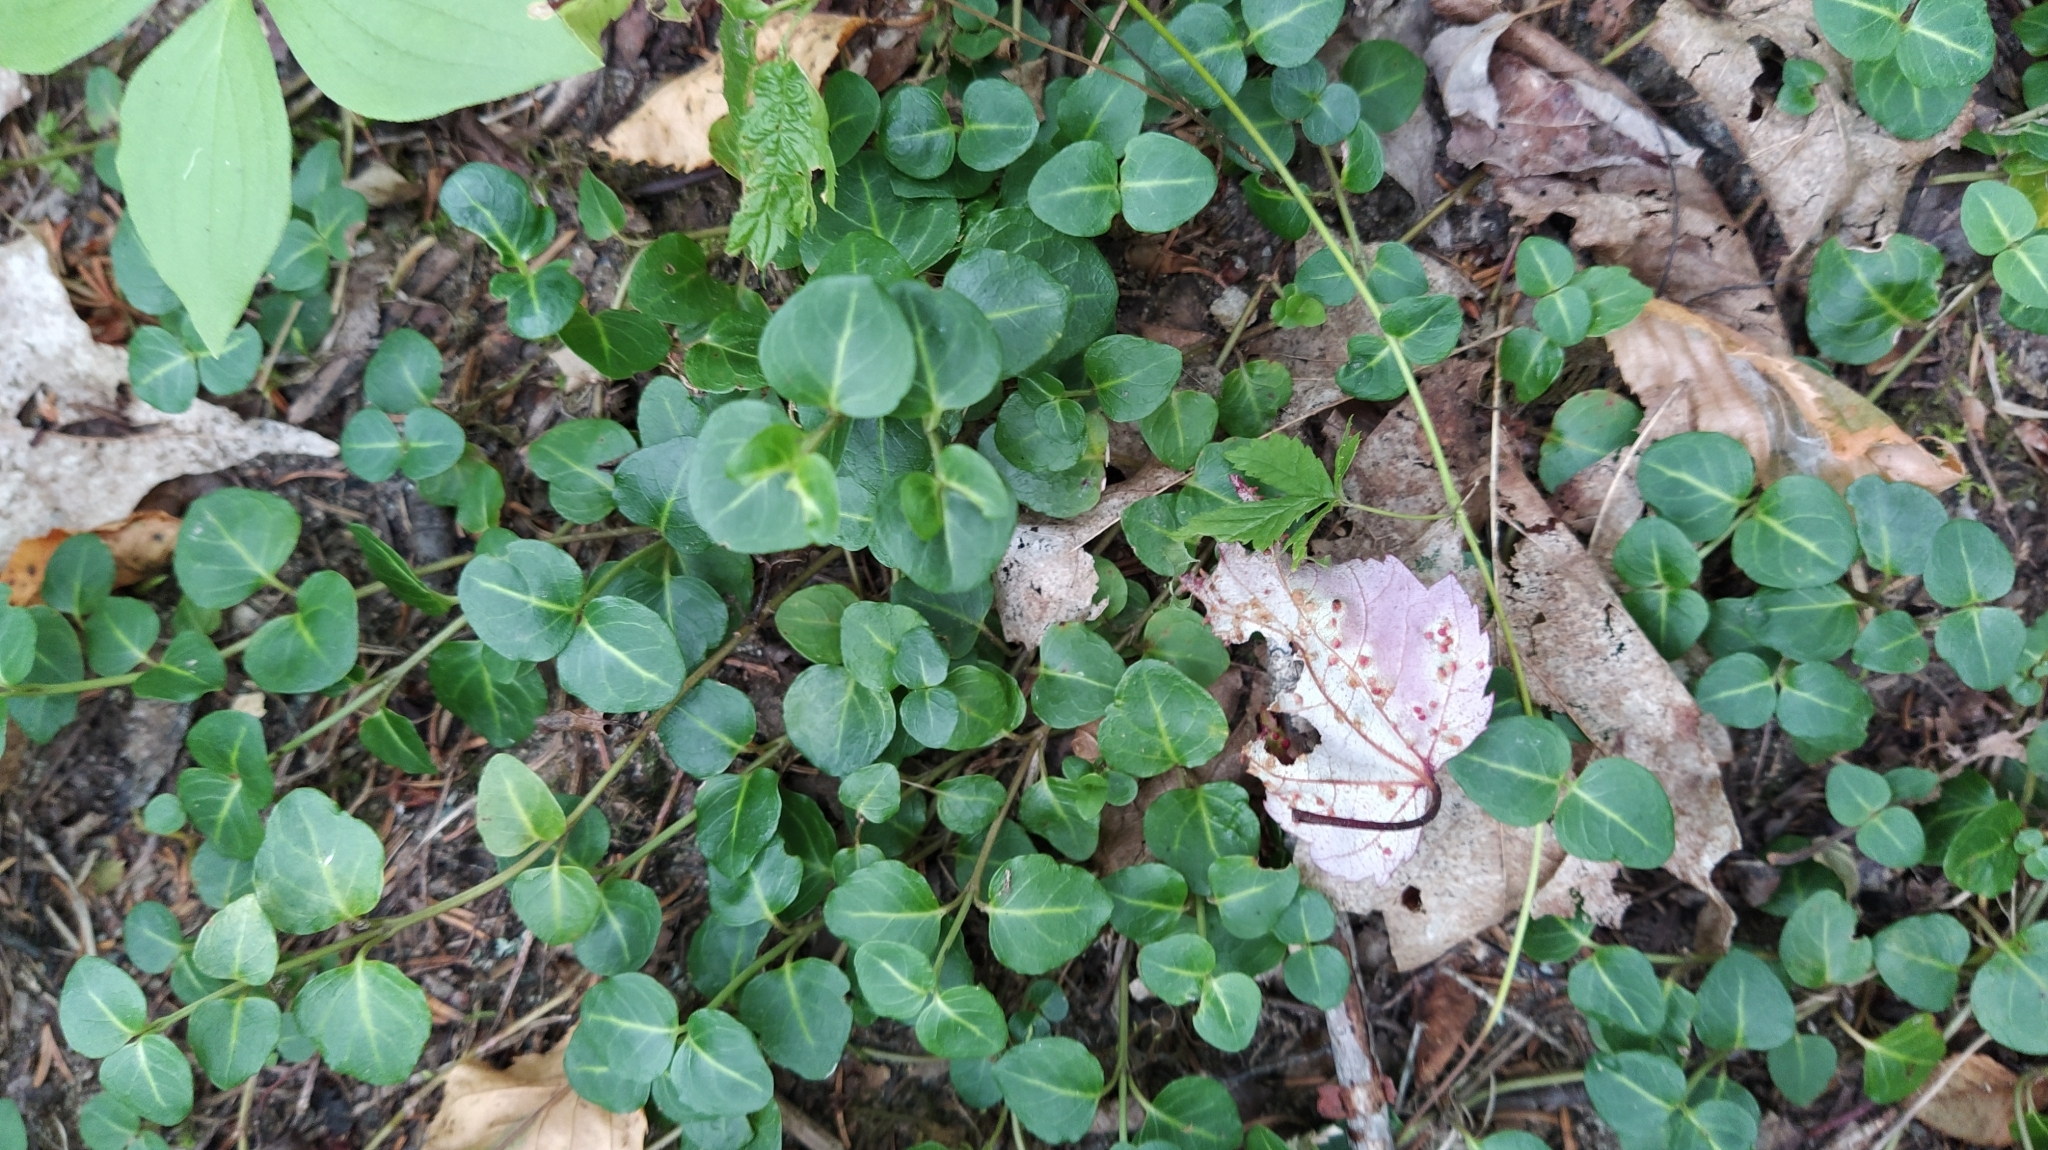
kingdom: Plantae
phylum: Tracheophyta
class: Magnoliopsida
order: Gentianales
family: Rubiaceae
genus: Mitchella
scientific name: Mitchella repens
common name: Partridge-berry
